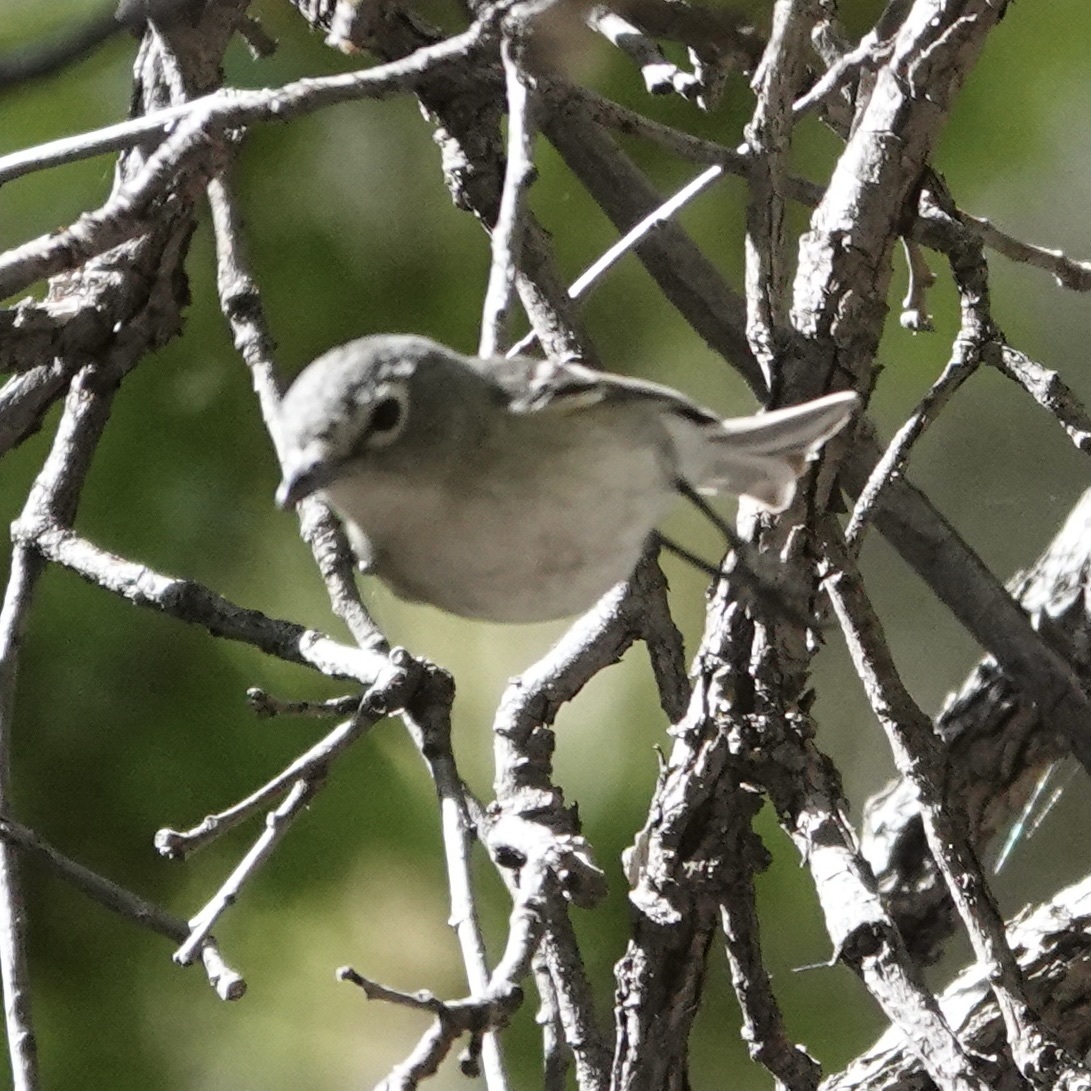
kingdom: Animalia
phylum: Chordata
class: Aves
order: Passeriformes
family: Vireonidae
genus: Vireo
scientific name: Vireo plumbeus
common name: Plumbeous vireo
